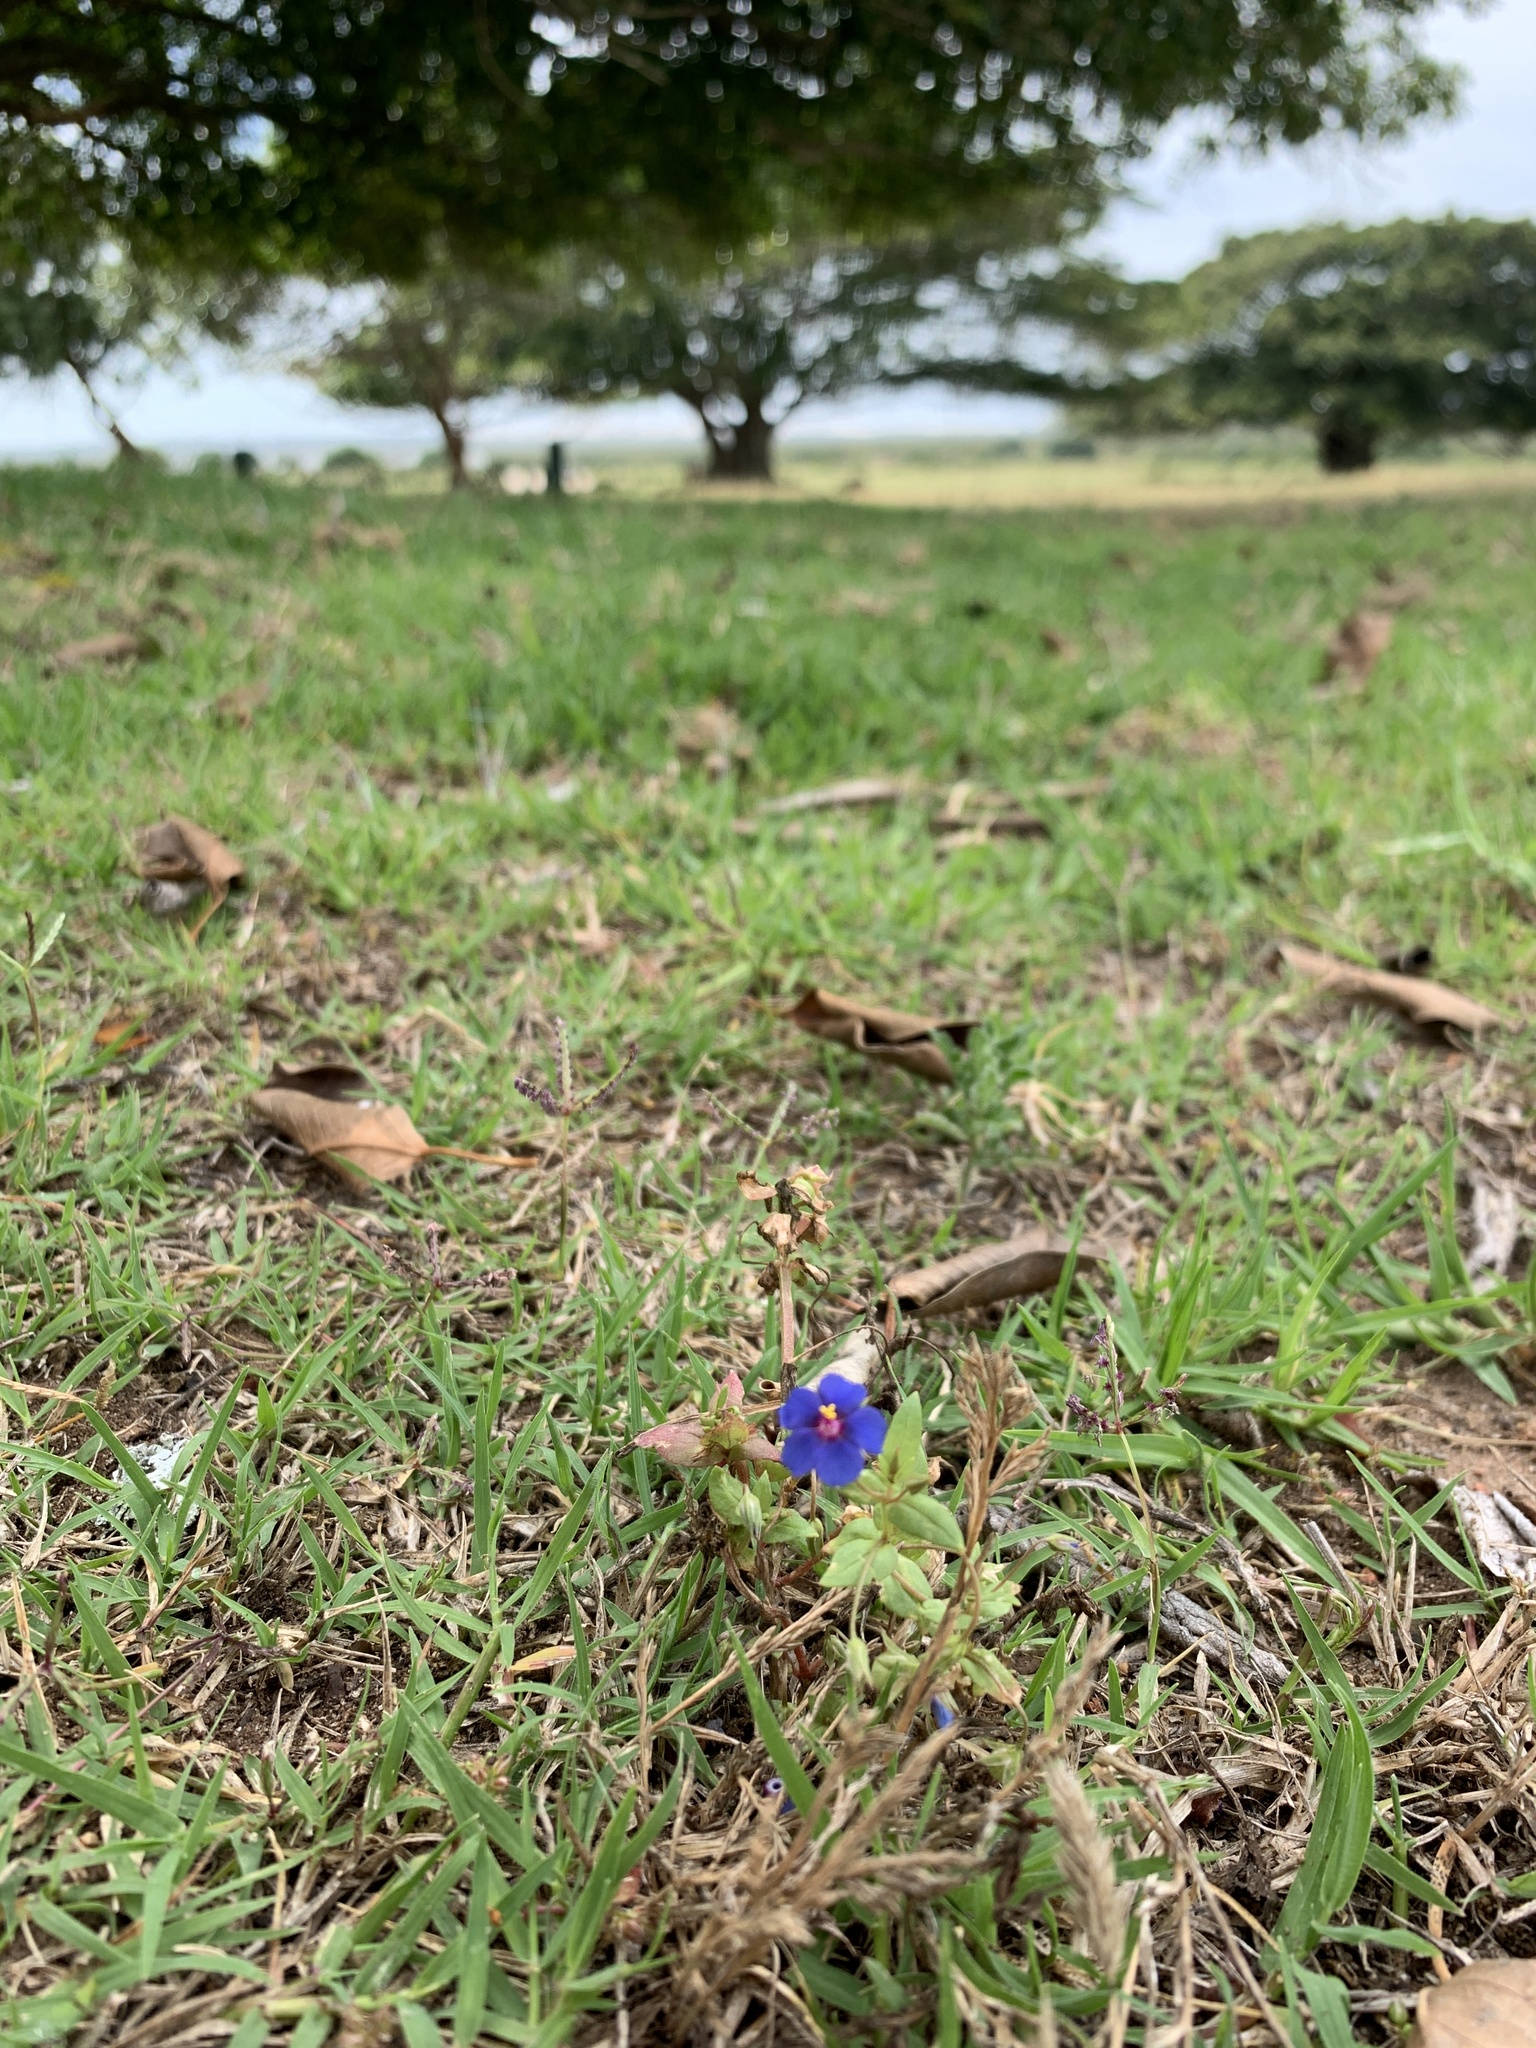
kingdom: Plantae
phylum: Tracheophyta
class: Magnoliopsida
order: Ericales
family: Primulaceae
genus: Lysimachia
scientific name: Lysimachia loeflingii
